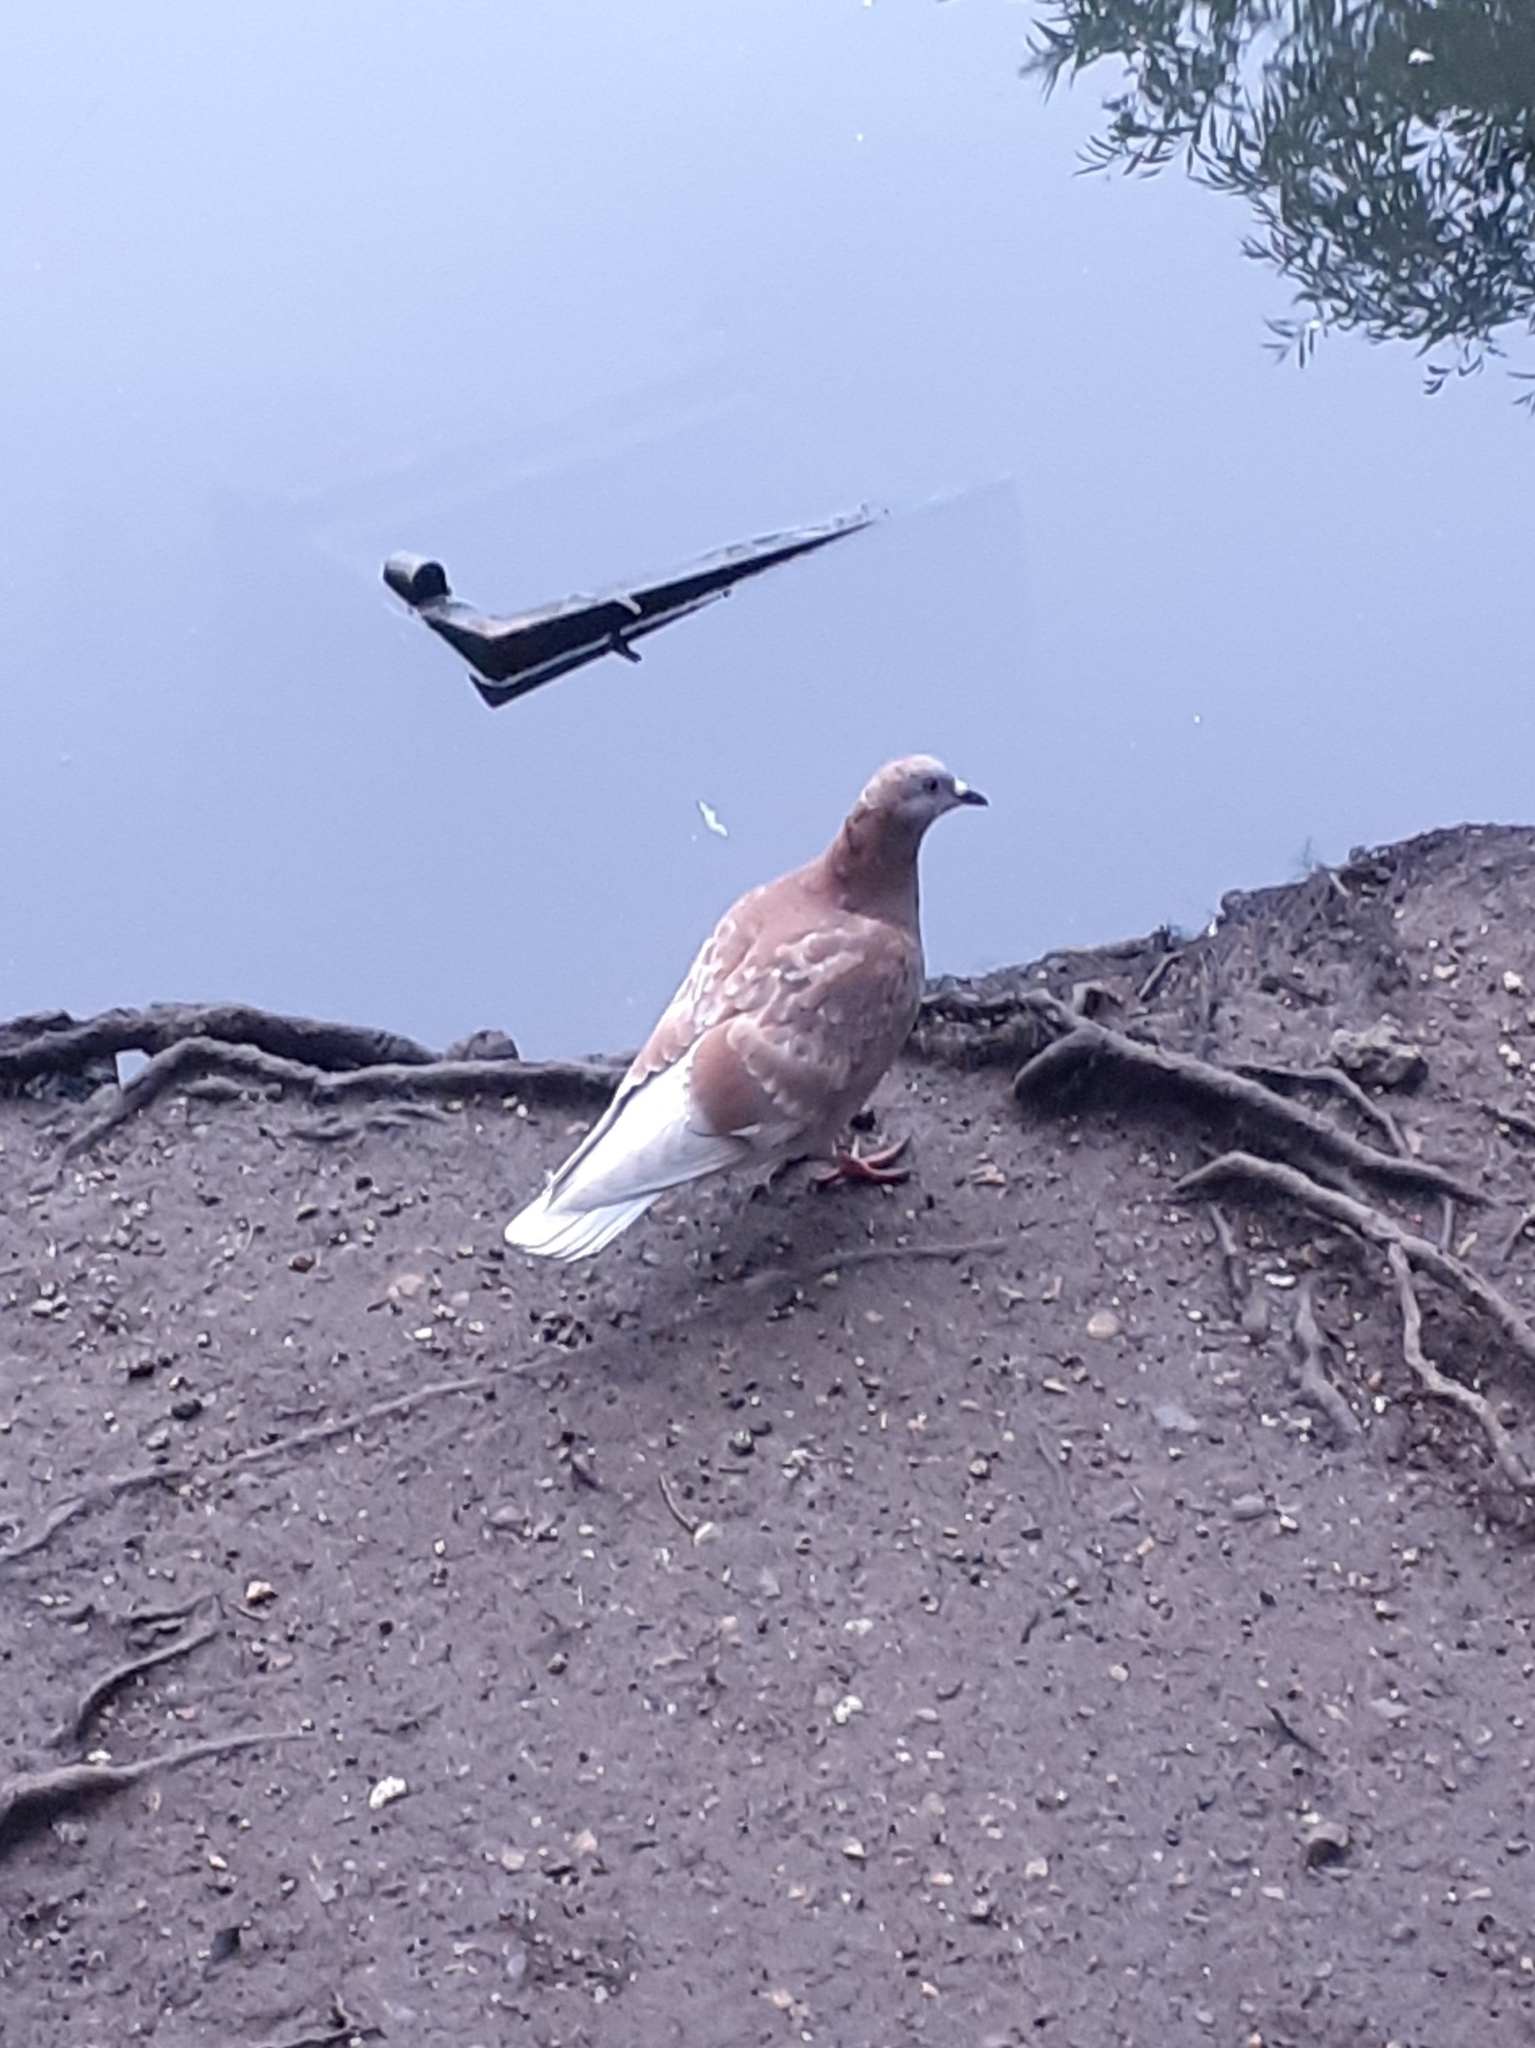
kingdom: Animalia
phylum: Chordata
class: Aves
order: Columbiformes
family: Columbidae
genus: Columba
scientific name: Columba livia
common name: Rock pigeon
